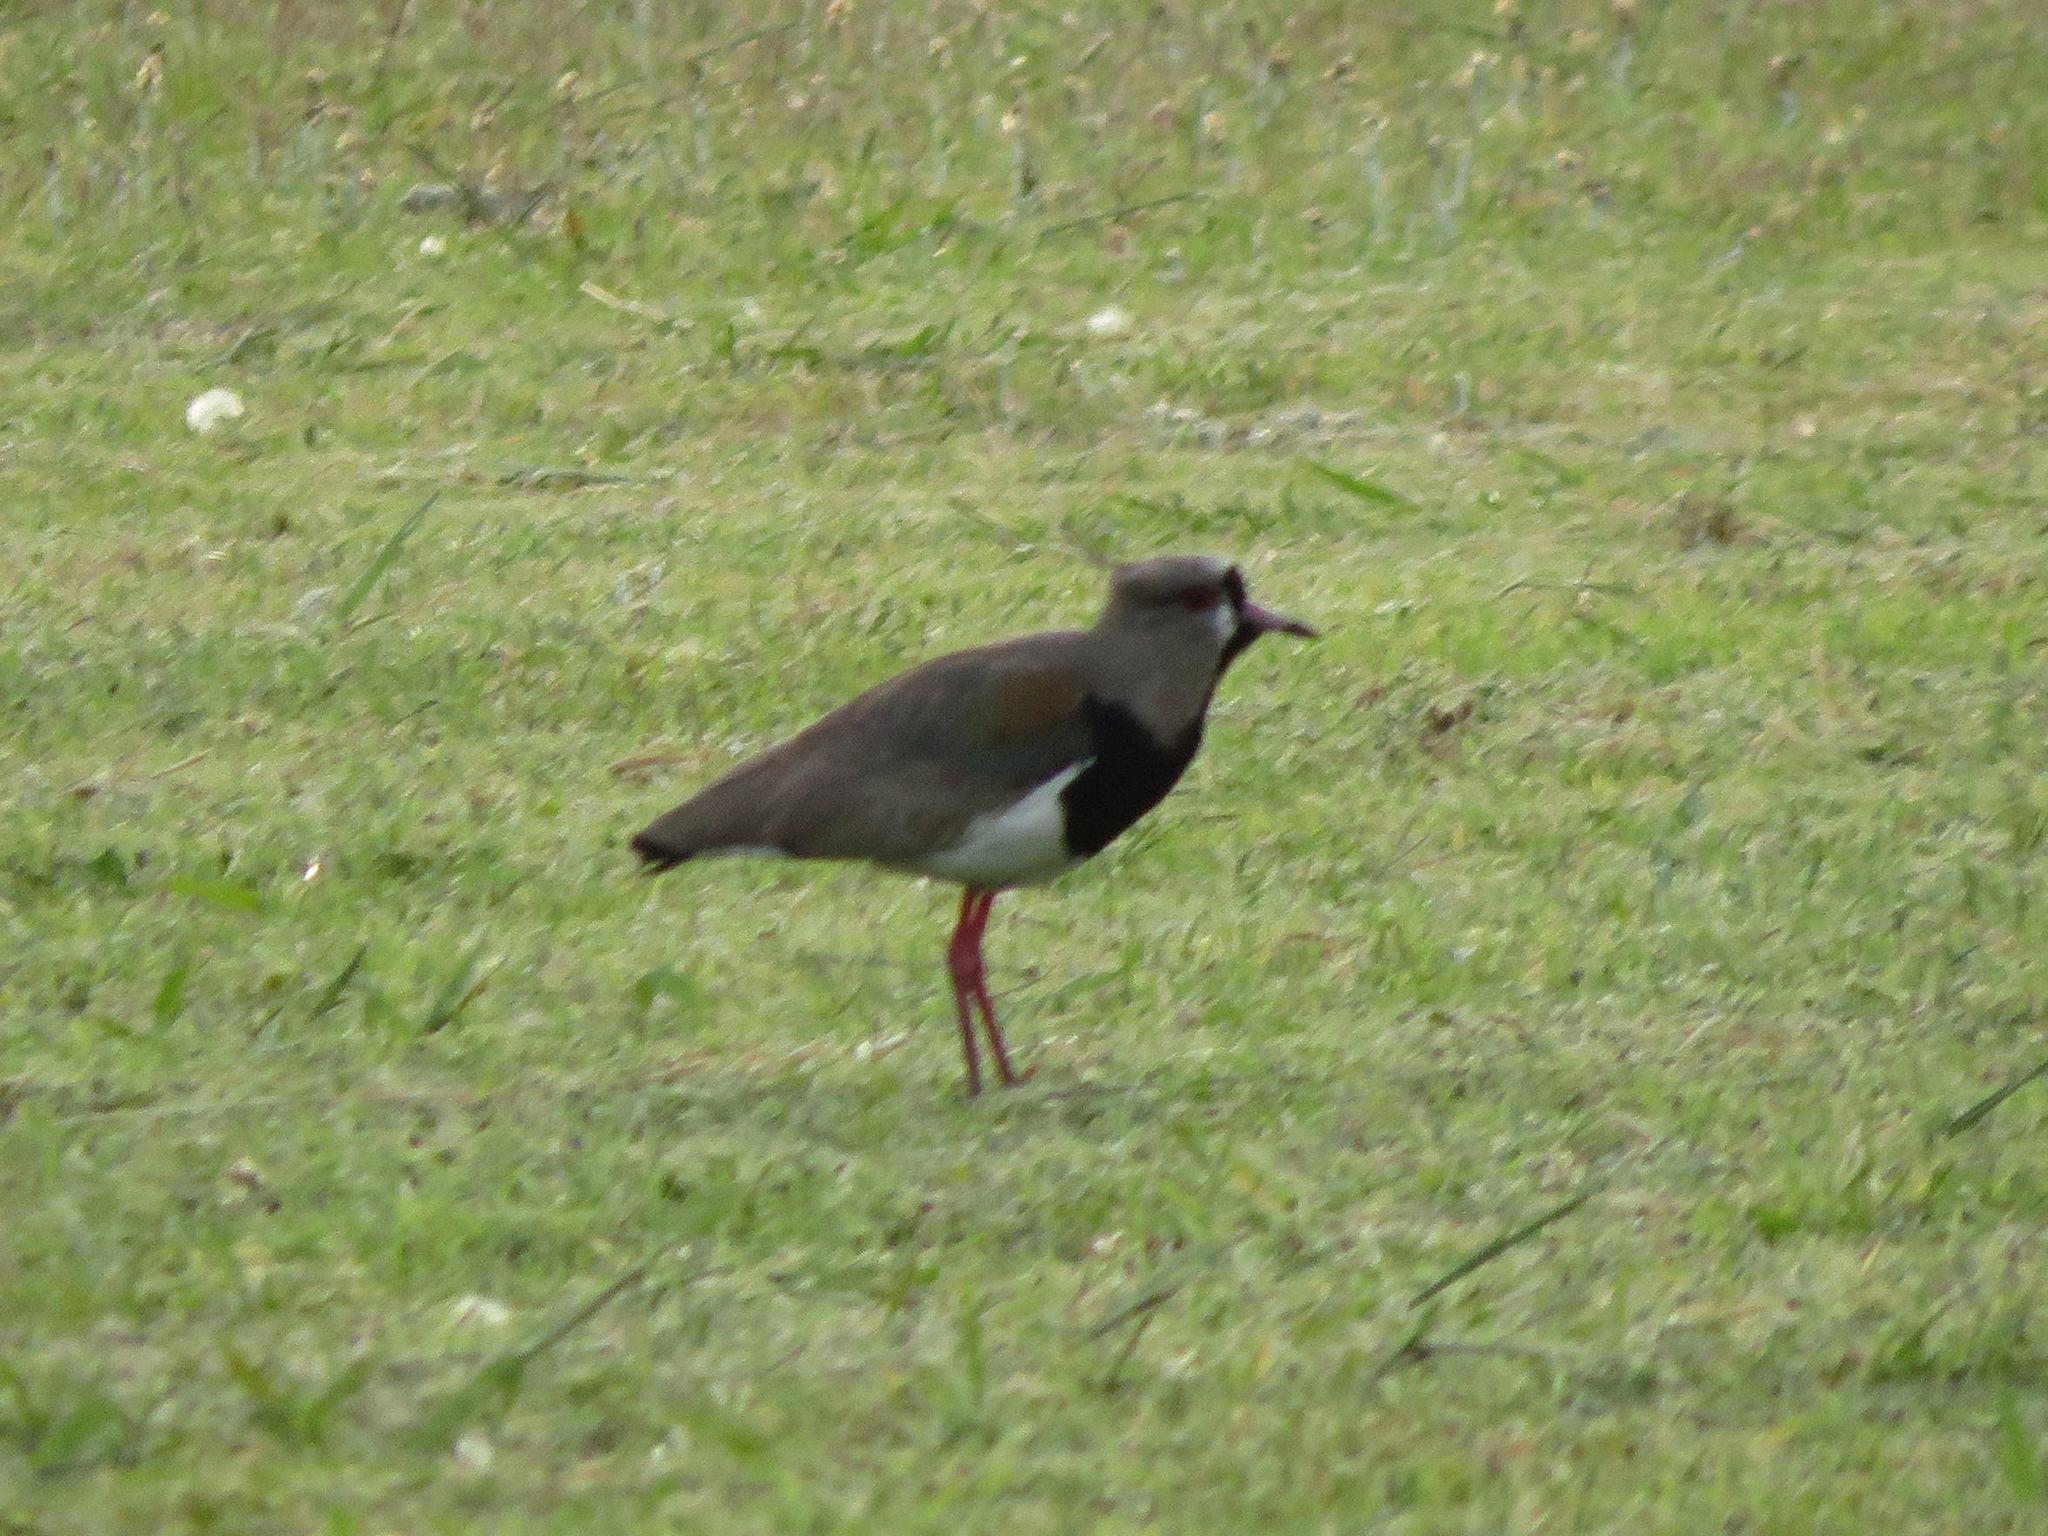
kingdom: Animalia
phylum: Chordata
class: Aves
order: Charadriiformes
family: Charadriidae
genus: Vanellus
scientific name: Vanellus chilensis
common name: Southern lapwing
